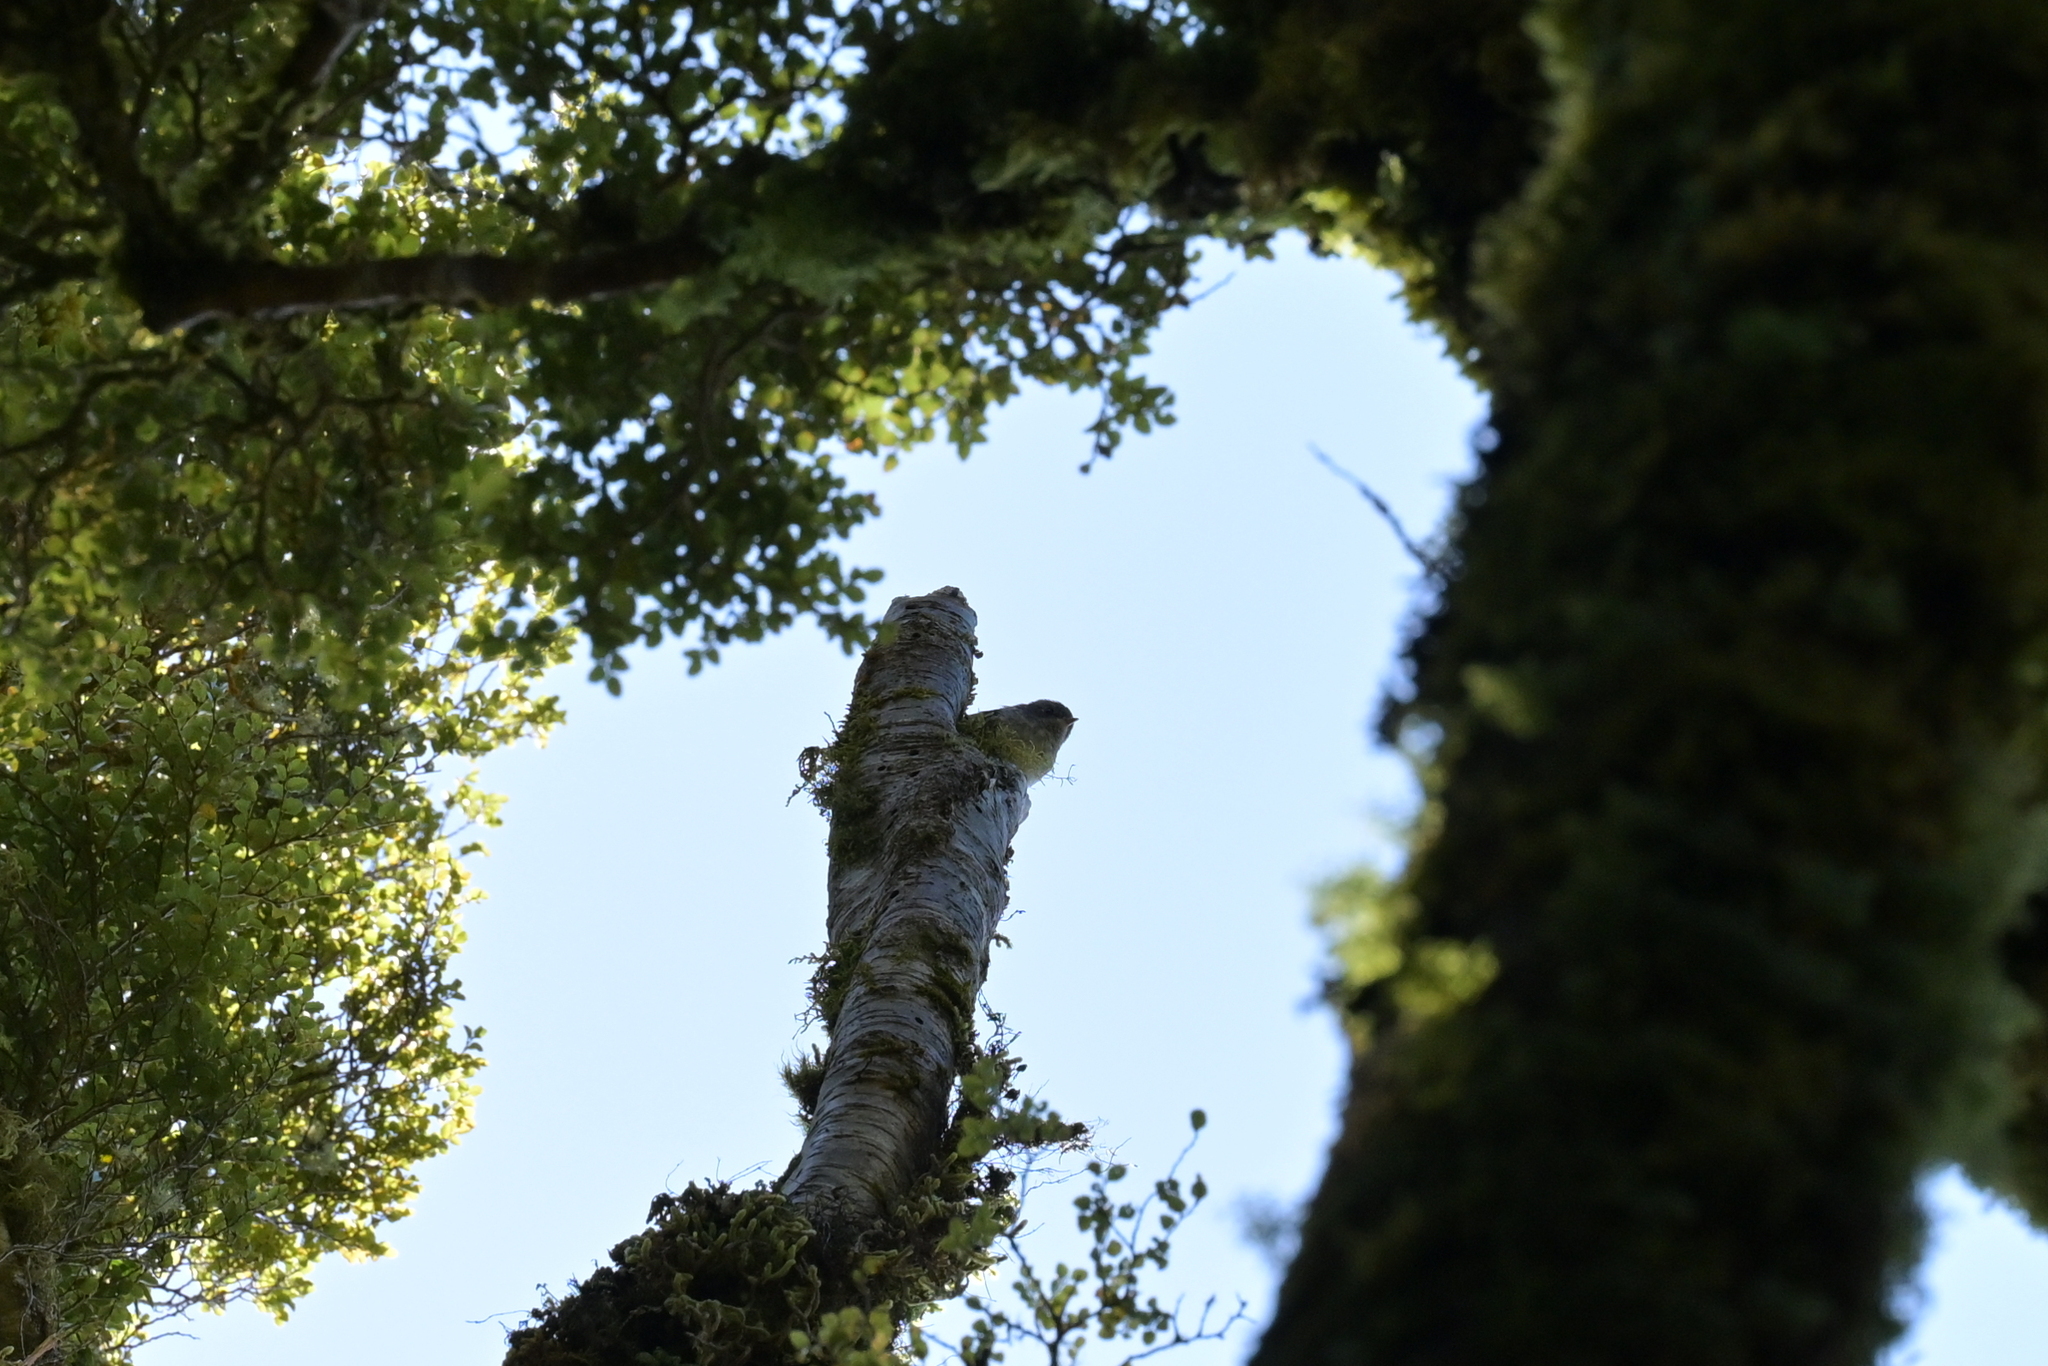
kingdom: Animalia
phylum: Chordata
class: Aves
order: Passeriformes
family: Acanthisittidae
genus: Acanthisitta
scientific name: Acanthisitta chloris
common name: Rifleman
